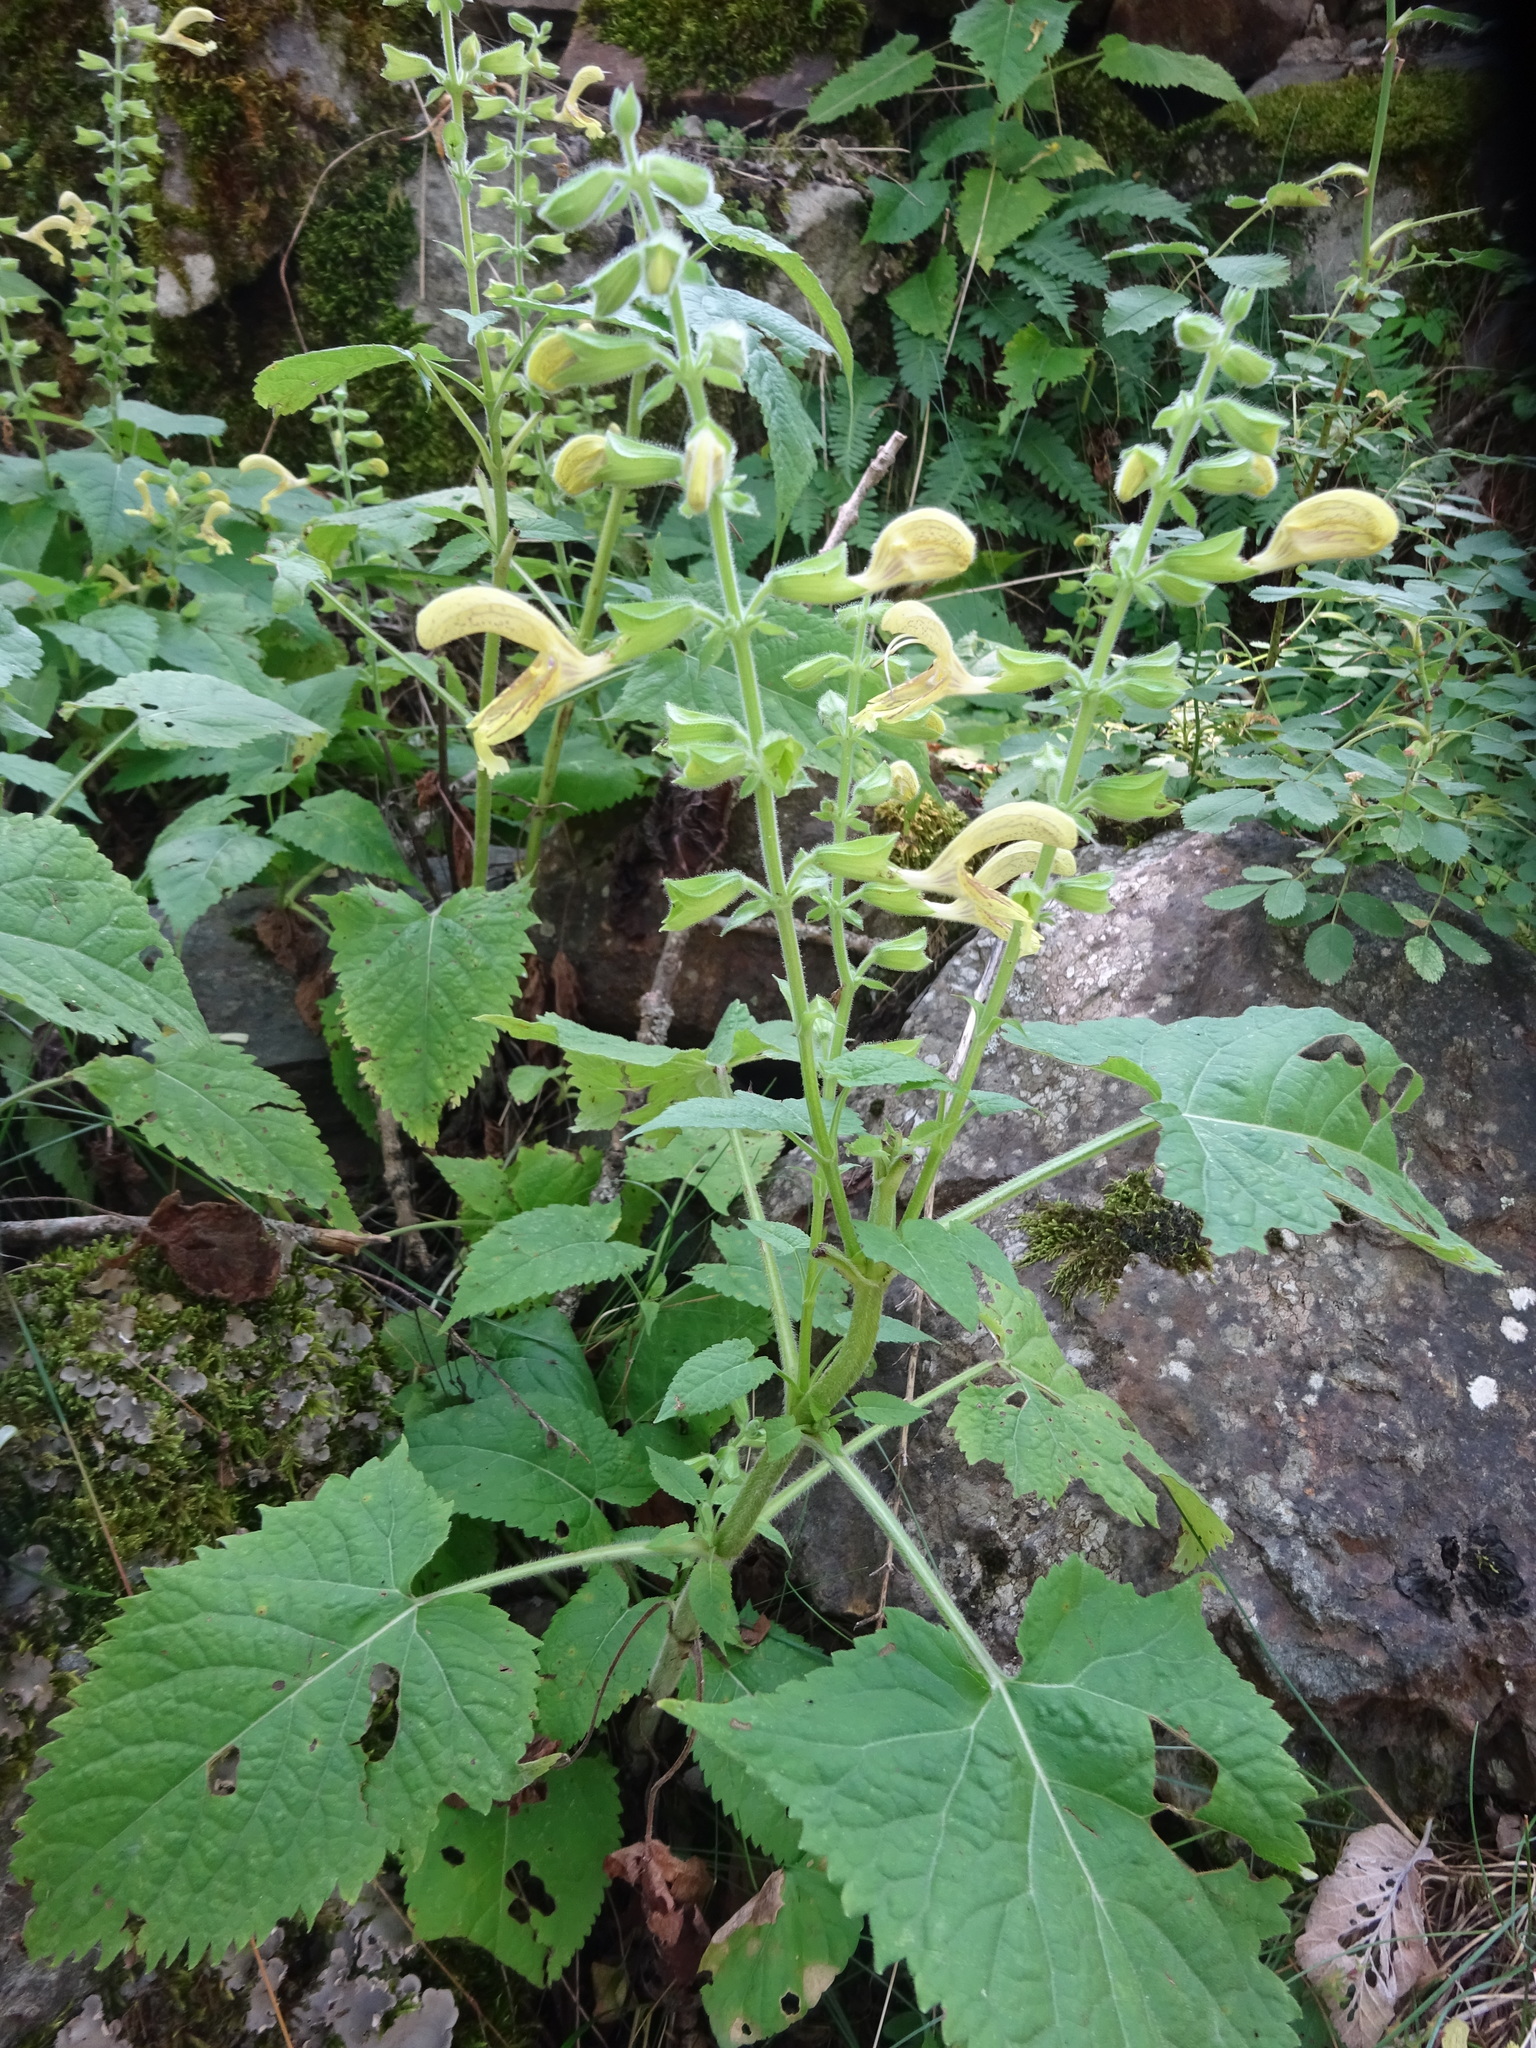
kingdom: Plantae
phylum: Tracheophyta
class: Magnoliopsida
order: Lamiales
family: Lamiaceae
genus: Salvia
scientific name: Salvia glutinosa
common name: Sticky clary
